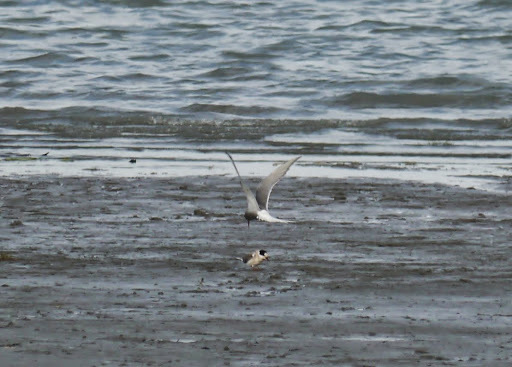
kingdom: Animalia
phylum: Chordata
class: Aves
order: Charadriiformes
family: Laridae
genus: Sterna
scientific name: Sterna paradisaea
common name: Arctic tern
